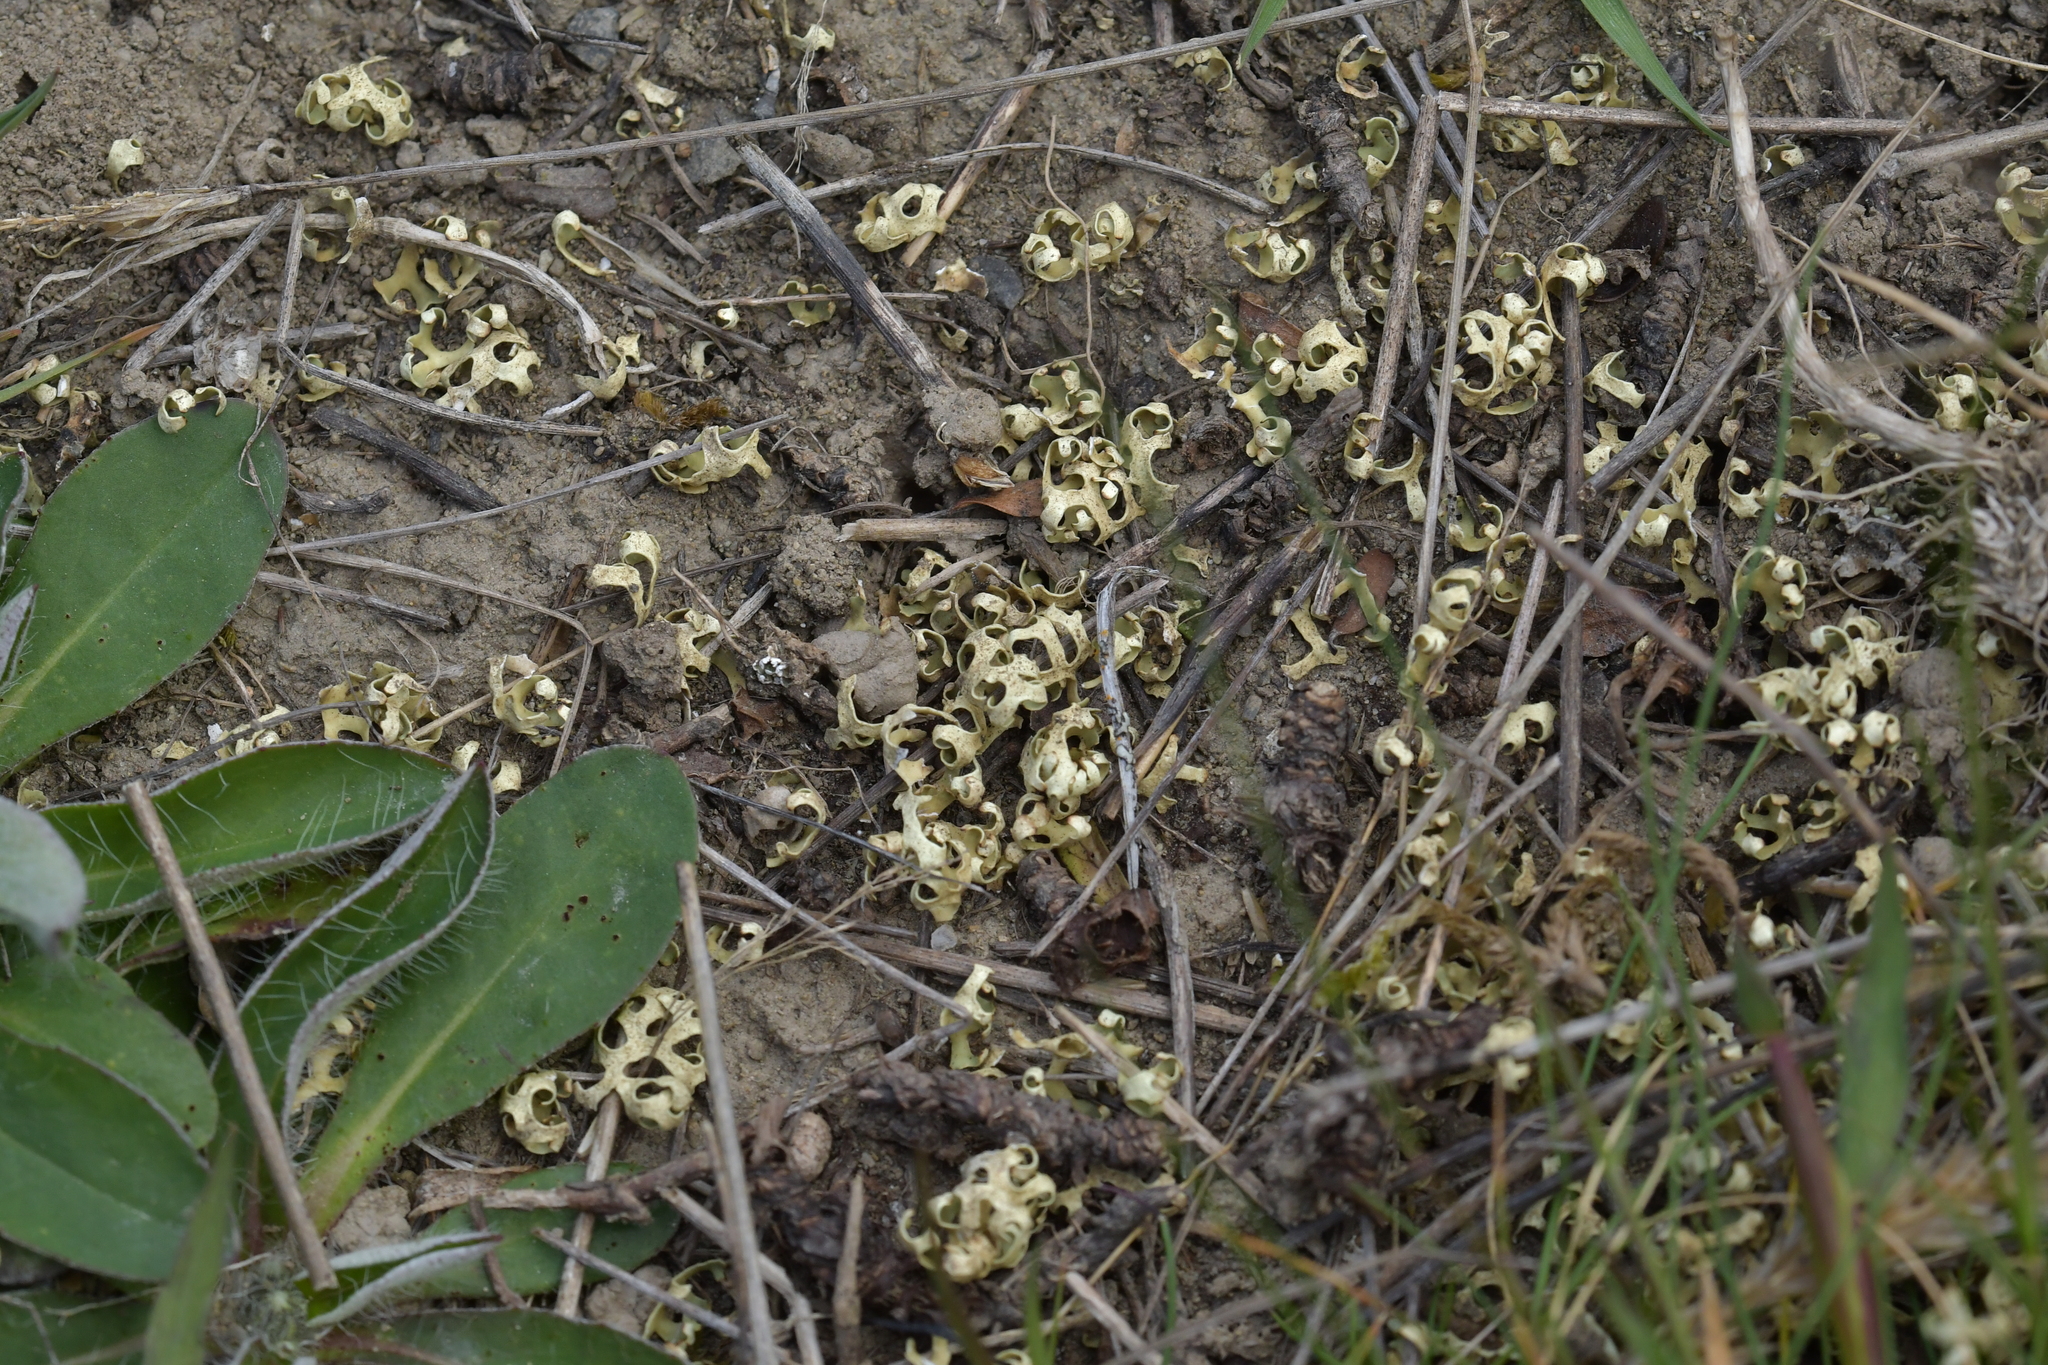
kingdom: Fungi
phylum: Ascomycota
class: Lecanoromycetes
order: Lecanorales
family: Parmeliaceae
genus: Xanthoparmelia
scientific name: Xanthoparmelia semiviridis
